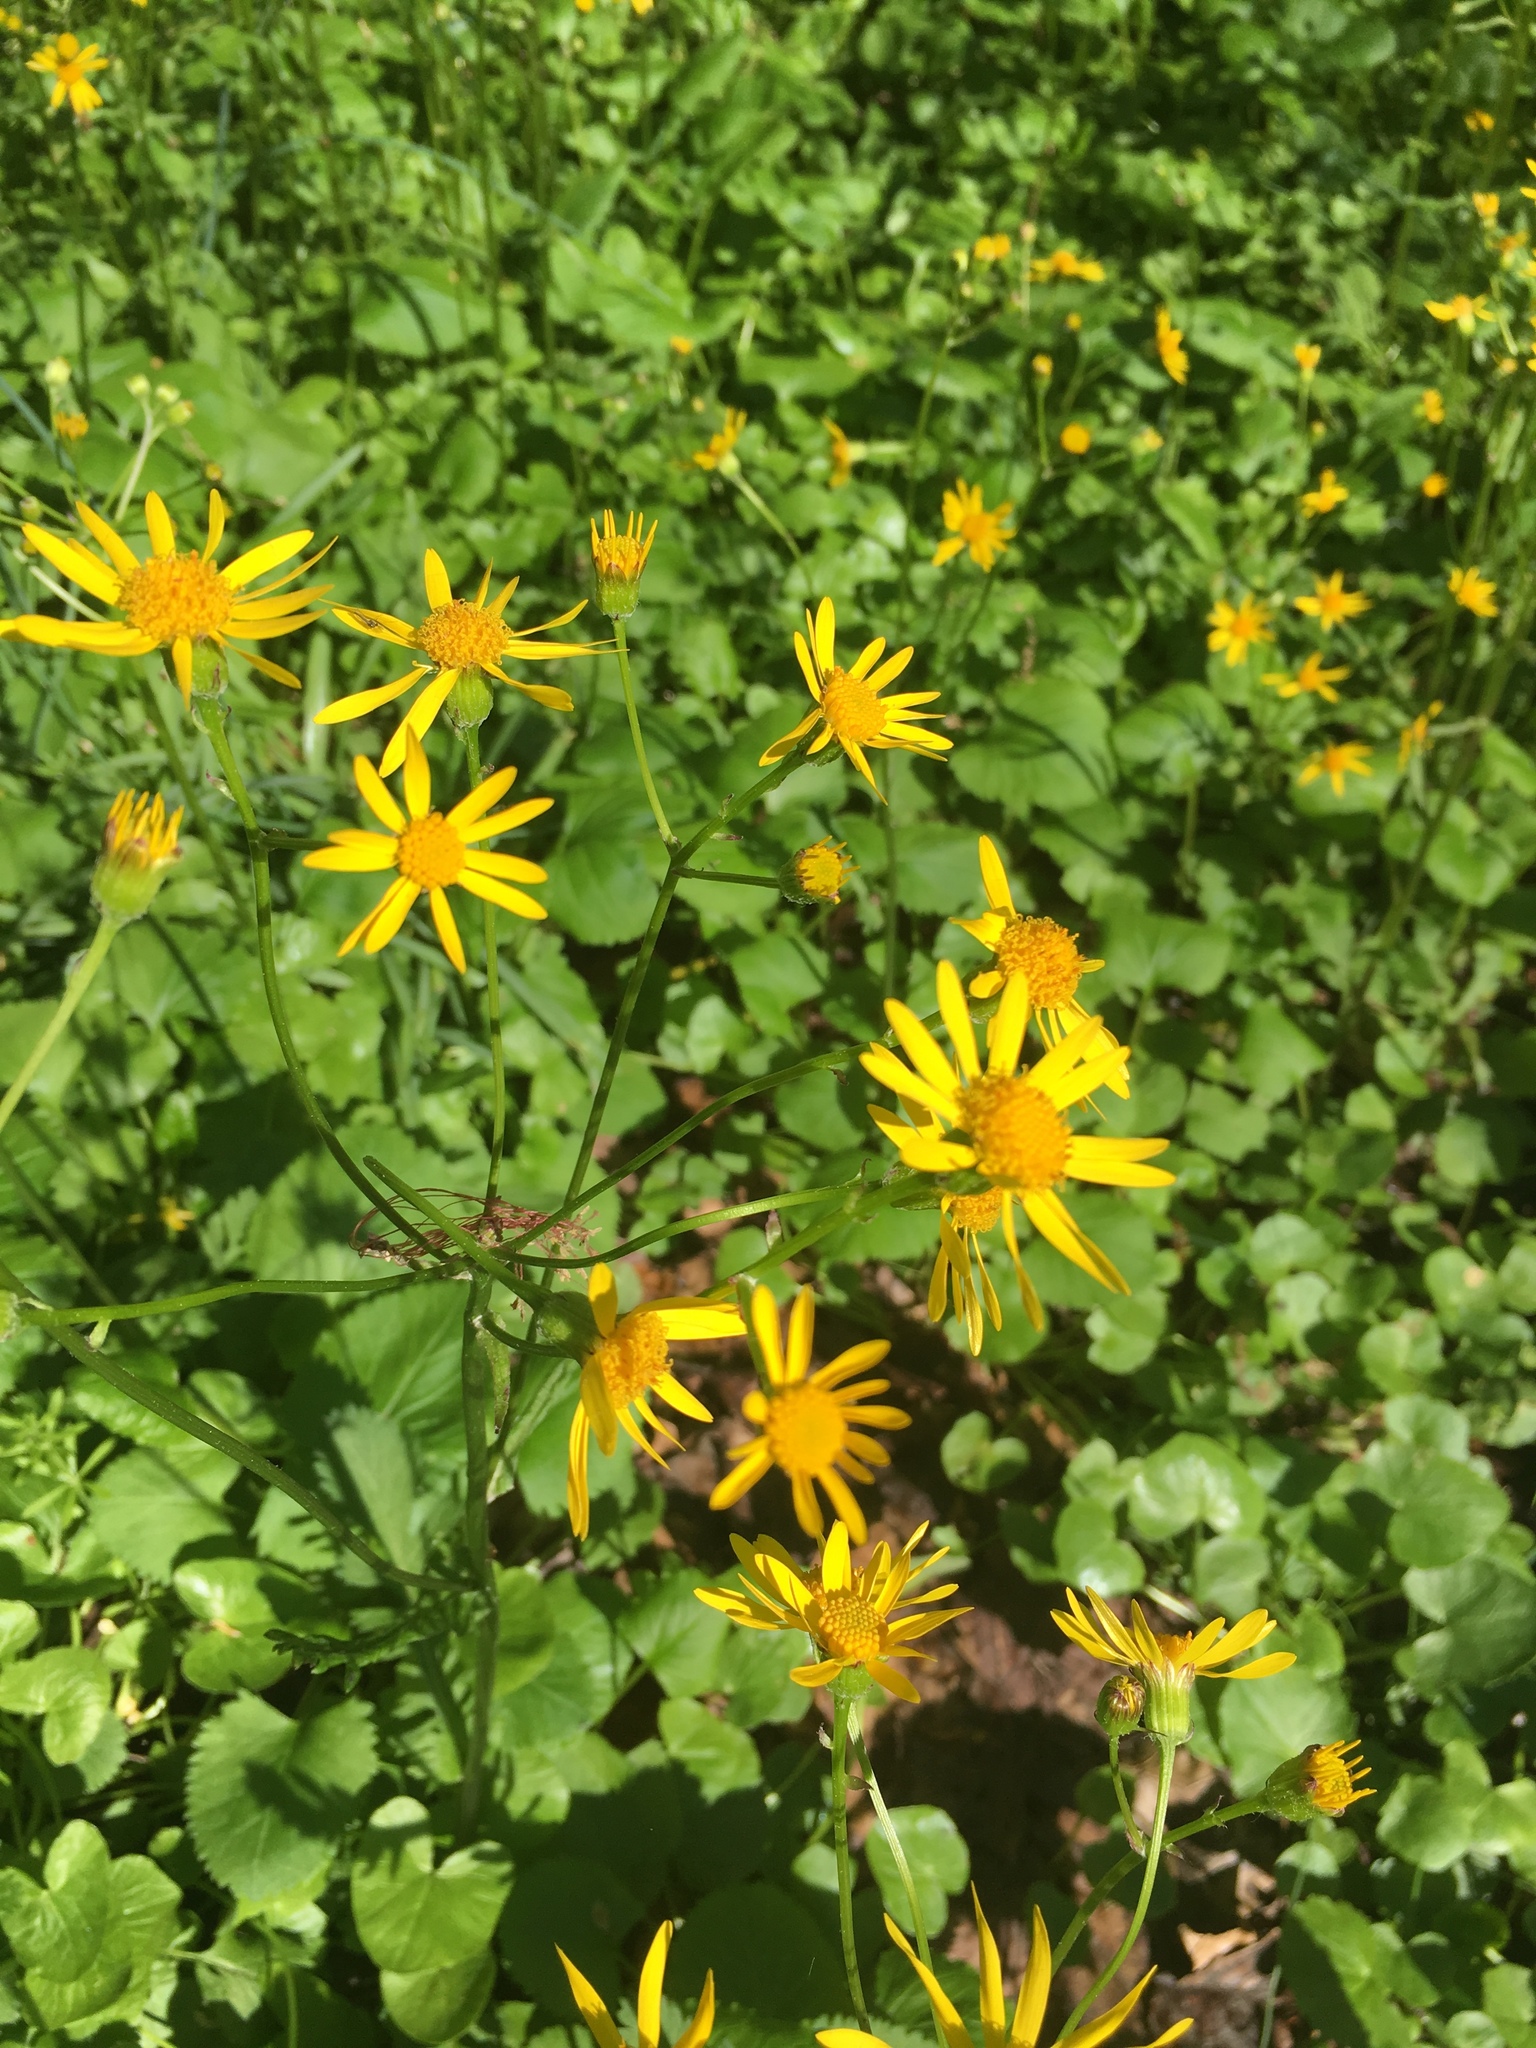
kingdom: Plantae
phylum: Tracheophyta
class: Magnoliopsida
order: Asterales
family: Asteraceae
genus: Packera
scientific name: Packera aurea
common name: Golden groundsel
